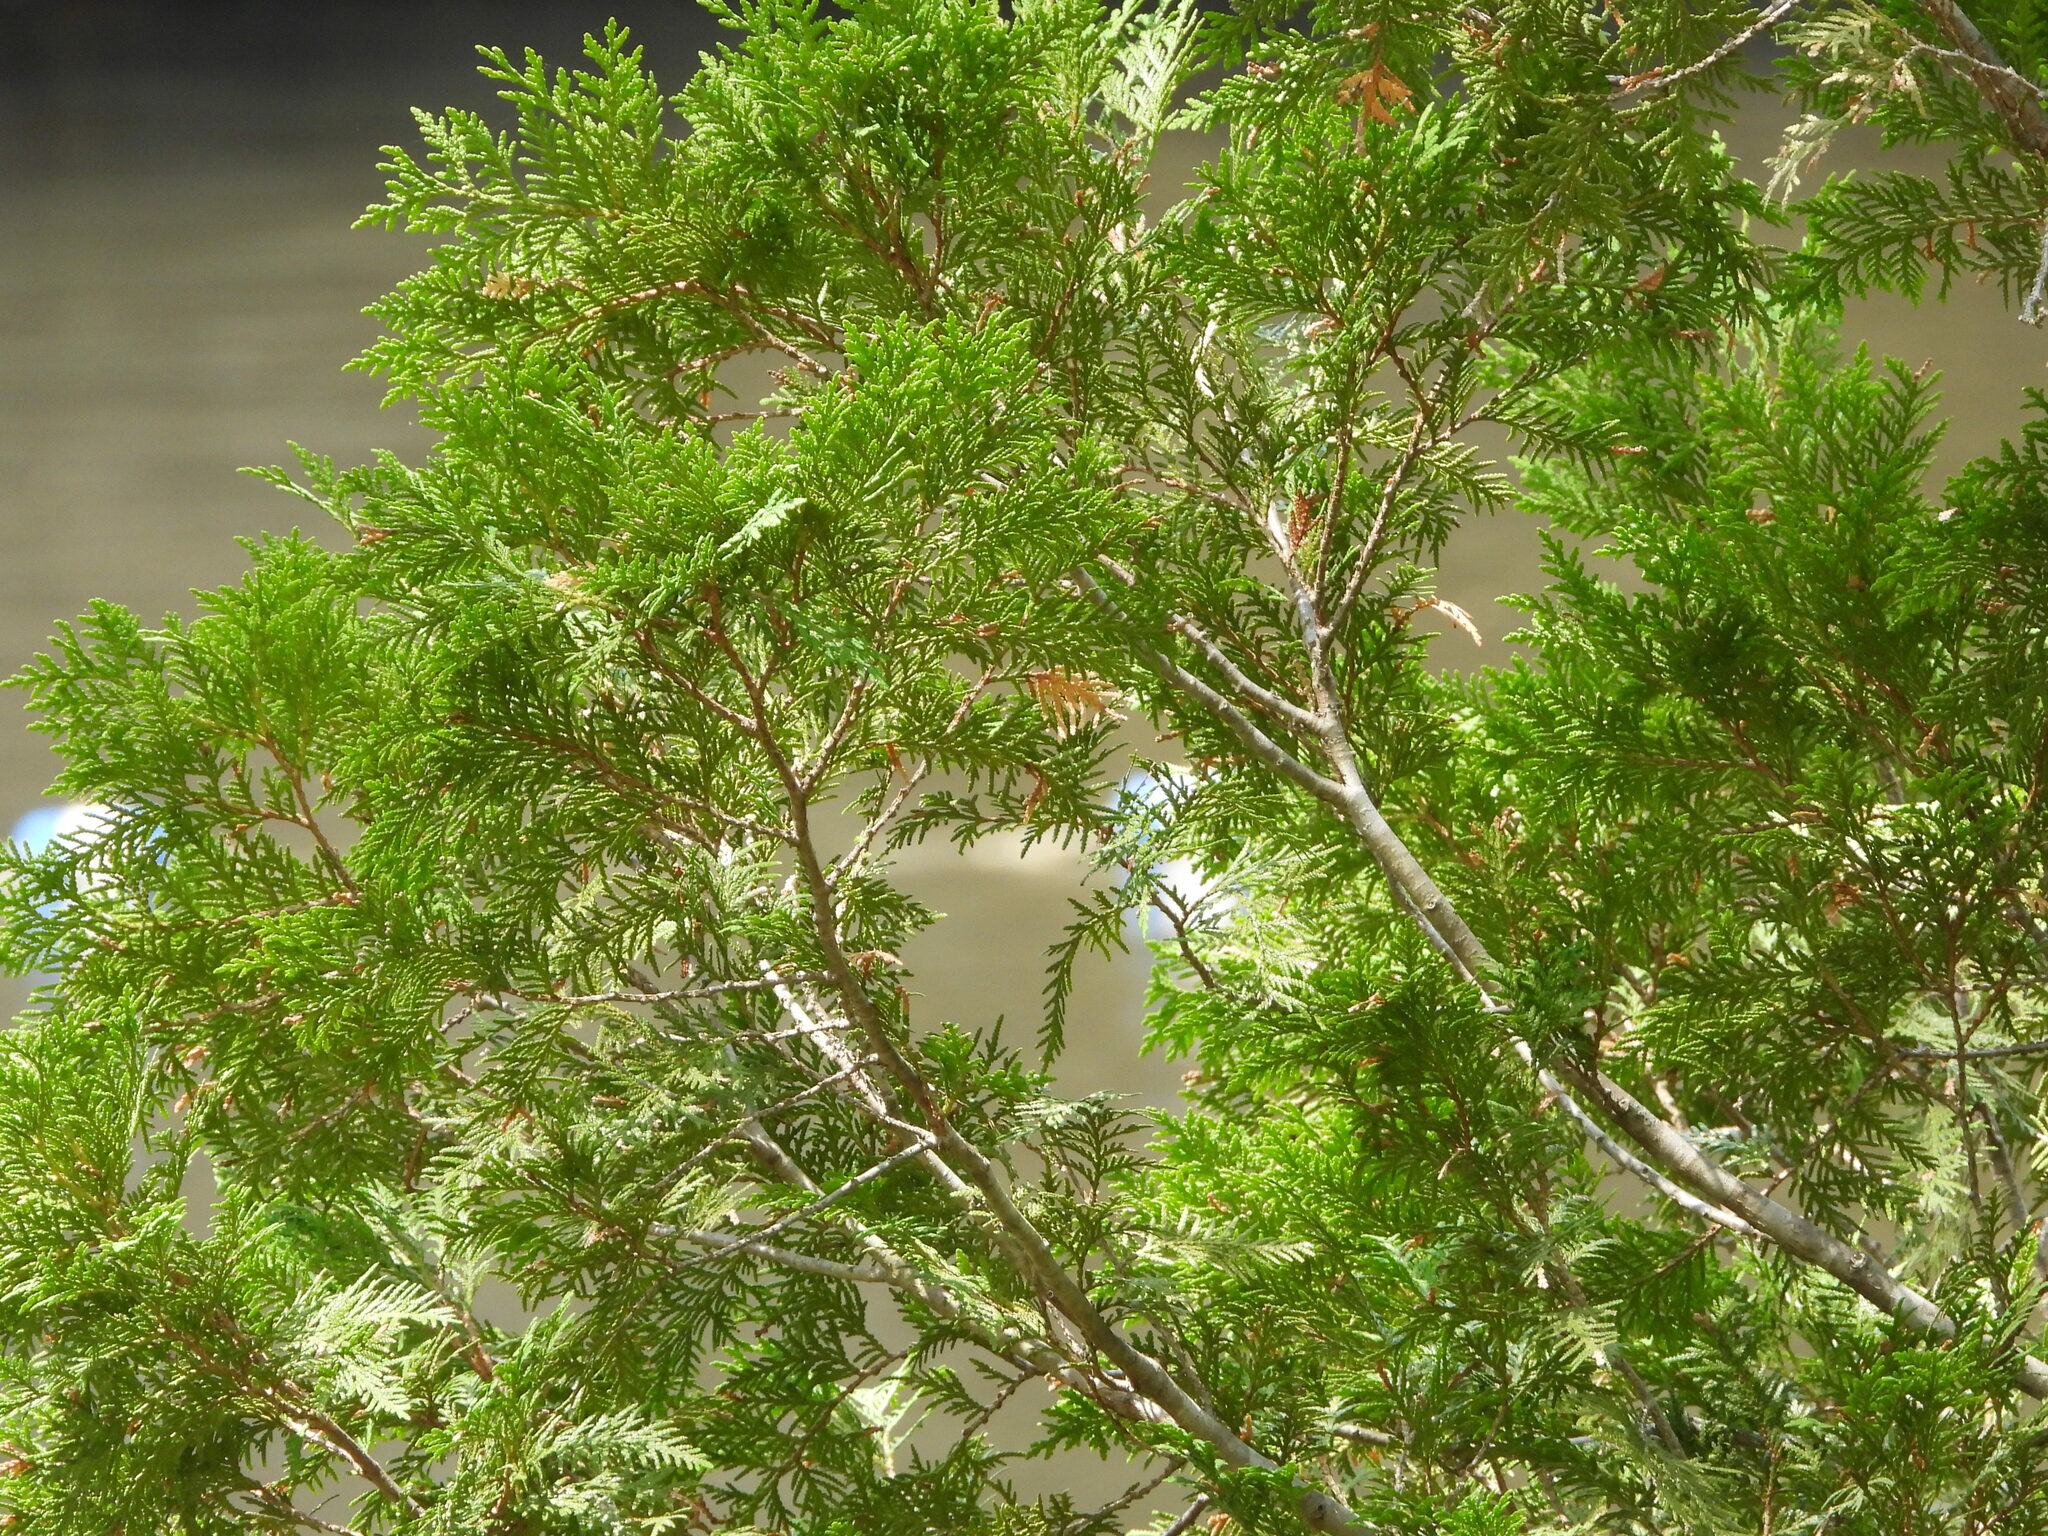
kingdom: Plantae
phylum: Tracheophyta
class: Pinopsida
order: Pinales
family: Cupressaceae
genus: Thuja
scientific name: Thuja occidentalis
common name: Northern white-cedar
